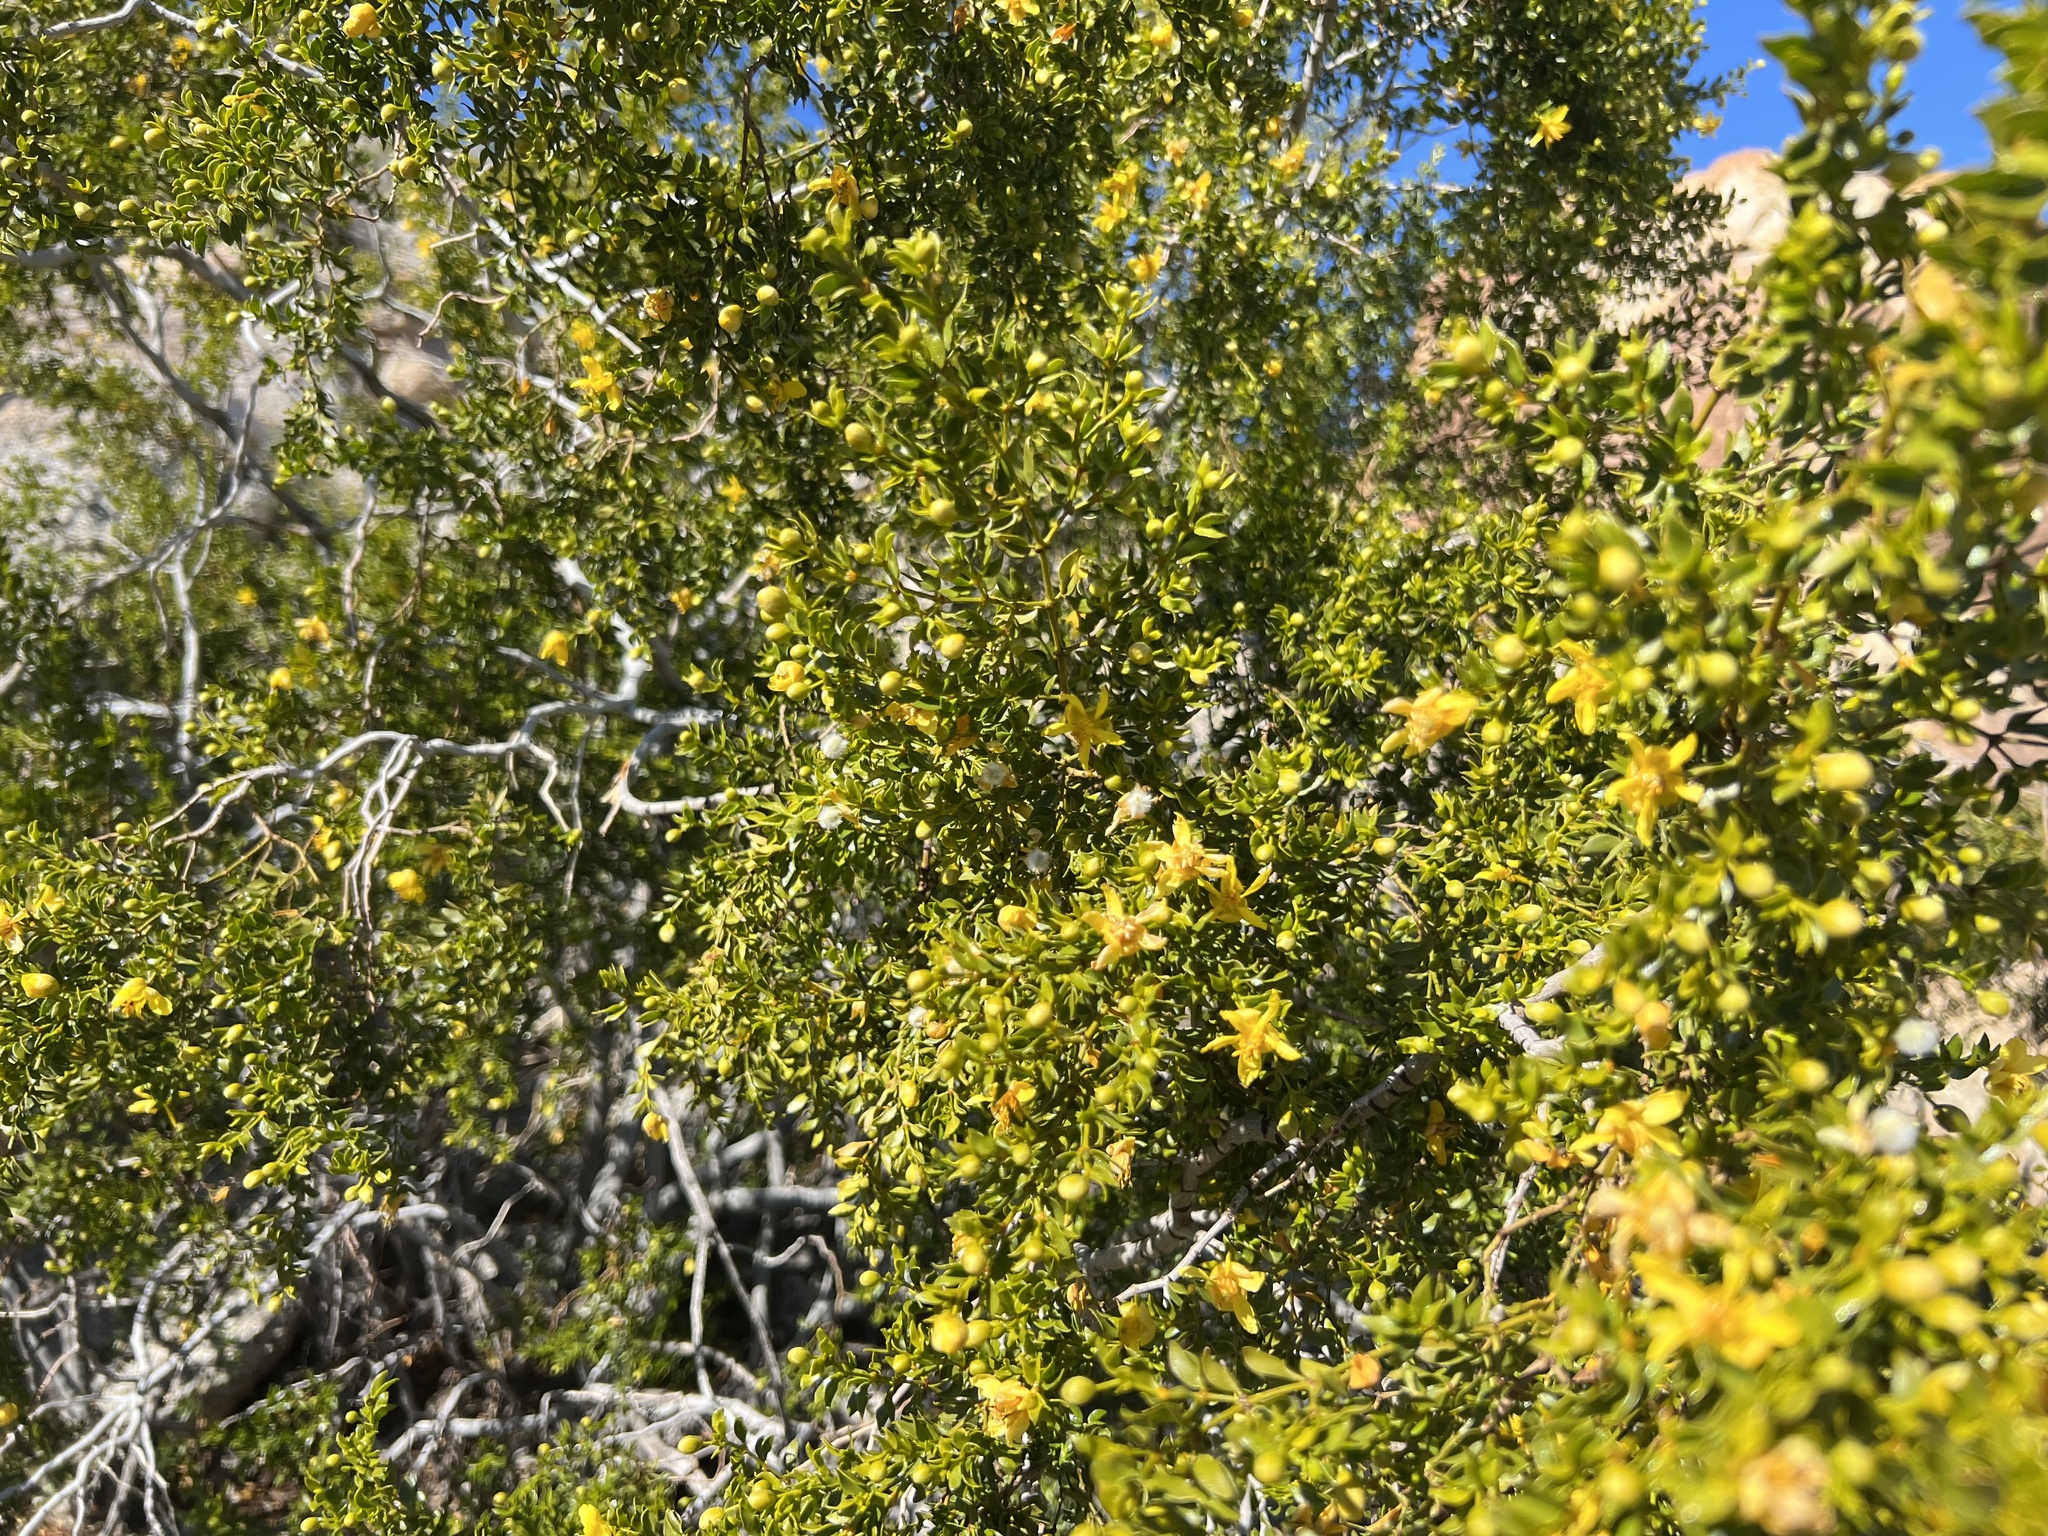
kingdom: Plantae
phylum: Tracheophyta
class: Magnoliopsida
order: Zygophyllales
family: Zygophyllaceae
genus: Larrea
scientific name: Larrea tridentata
